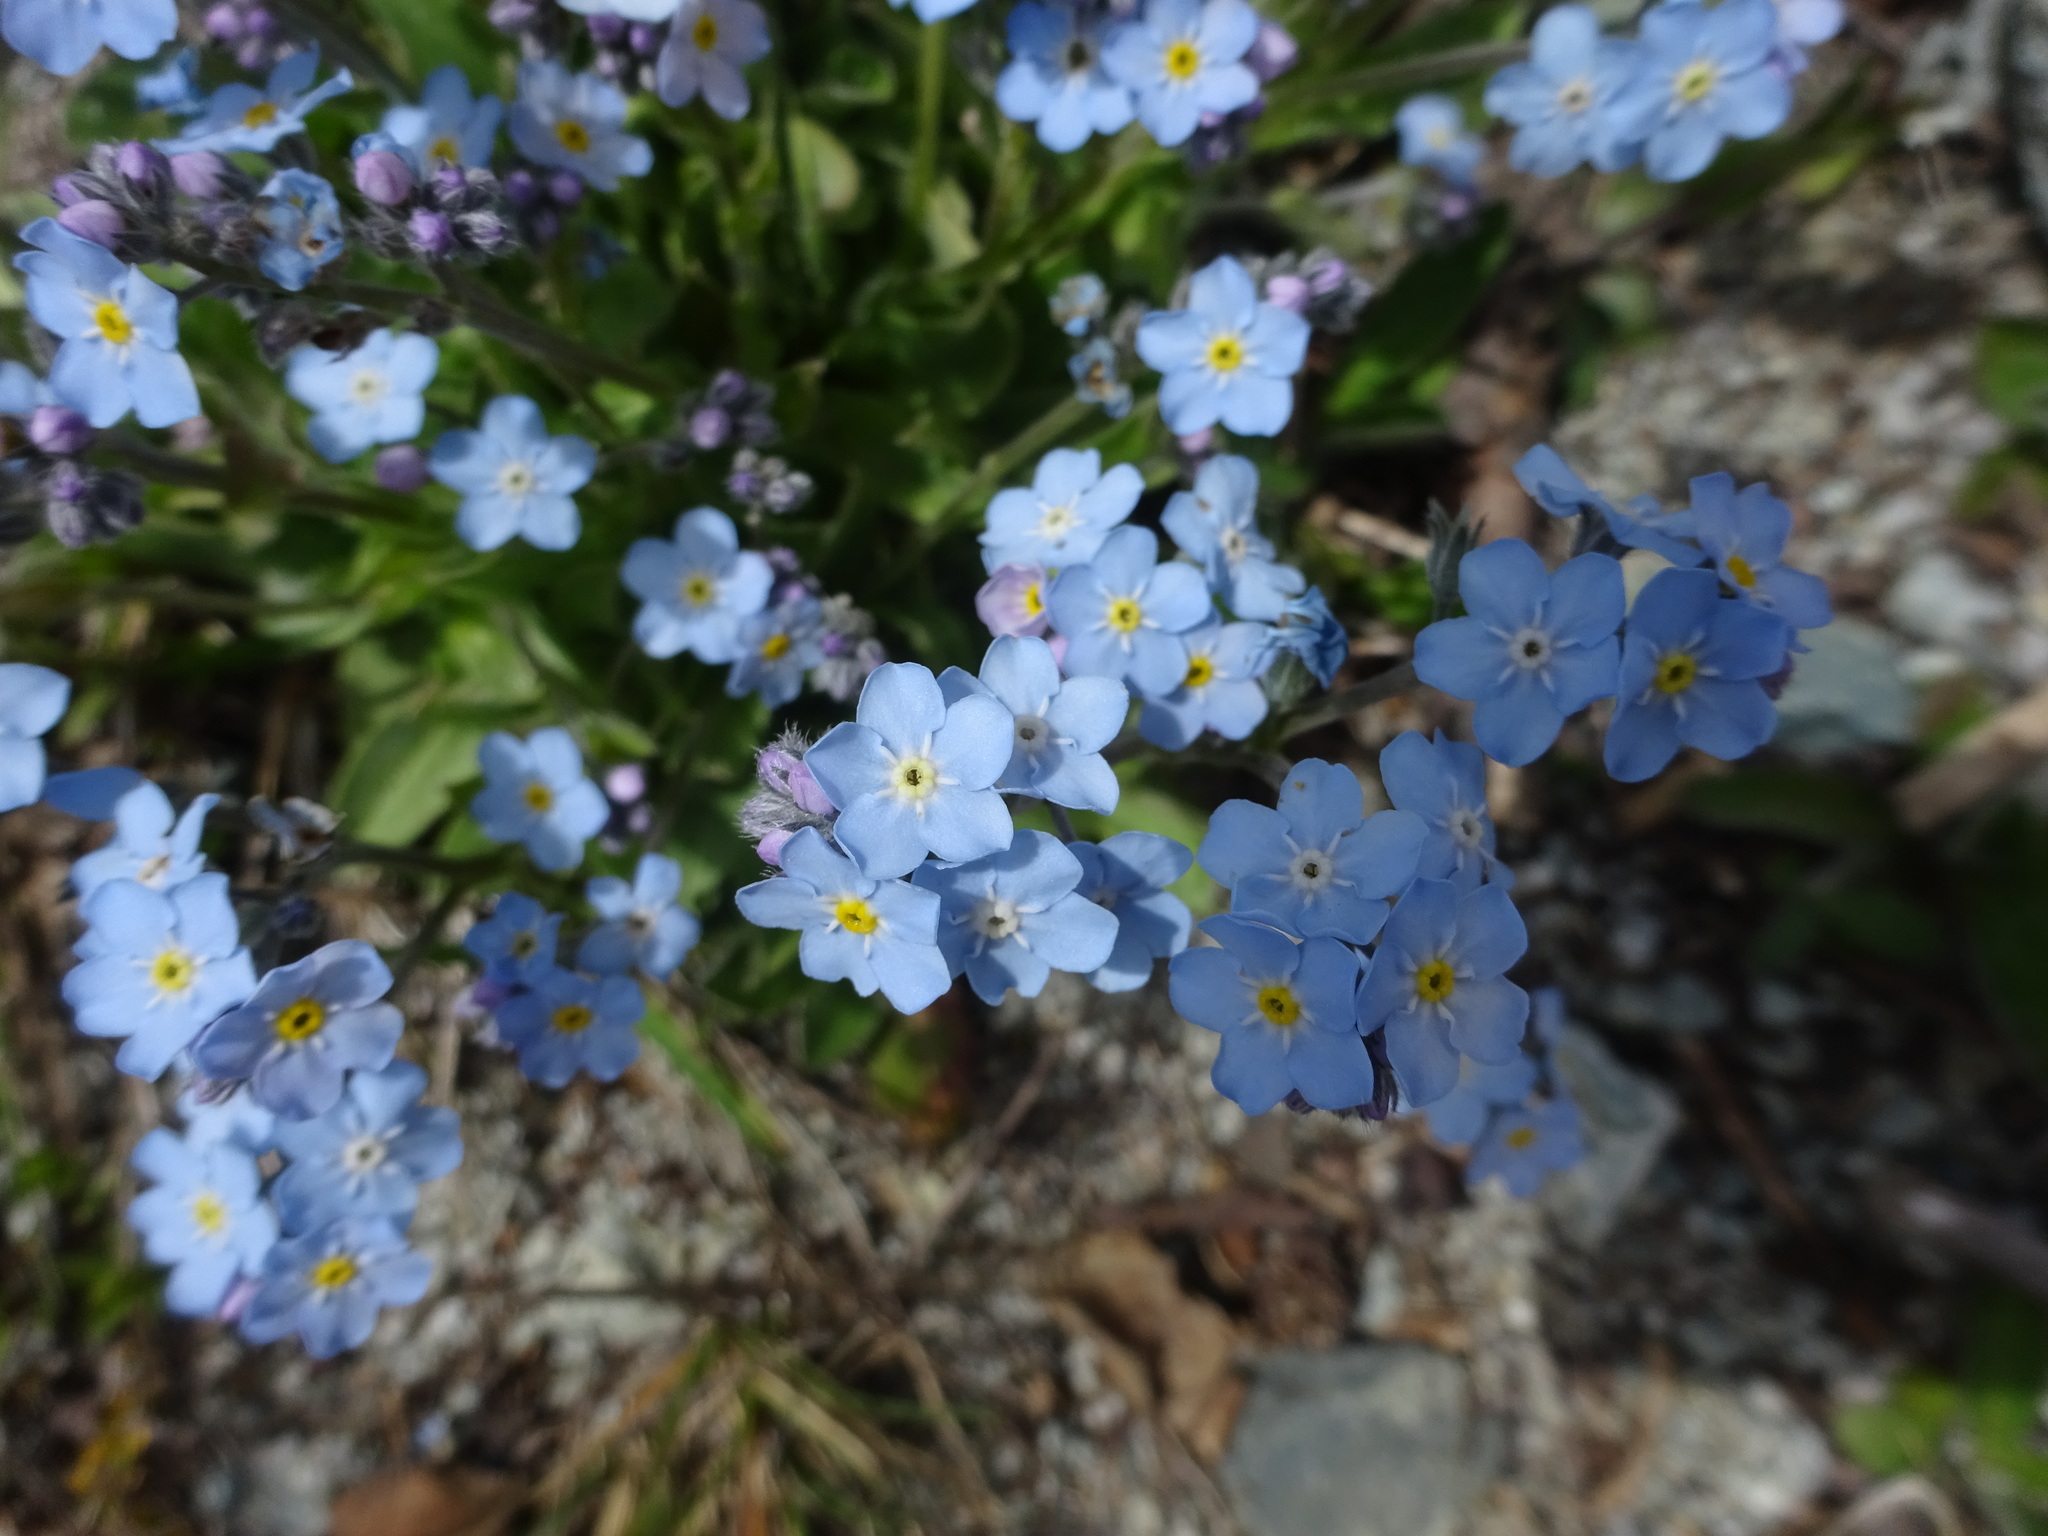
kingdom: Plantae
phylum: Tracheophyta
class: Magnoliopsida
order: Boraginales
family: Boraginaceae
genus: Myosotis
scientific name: Myosotis alpestris
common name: Alpine forget-me-not
